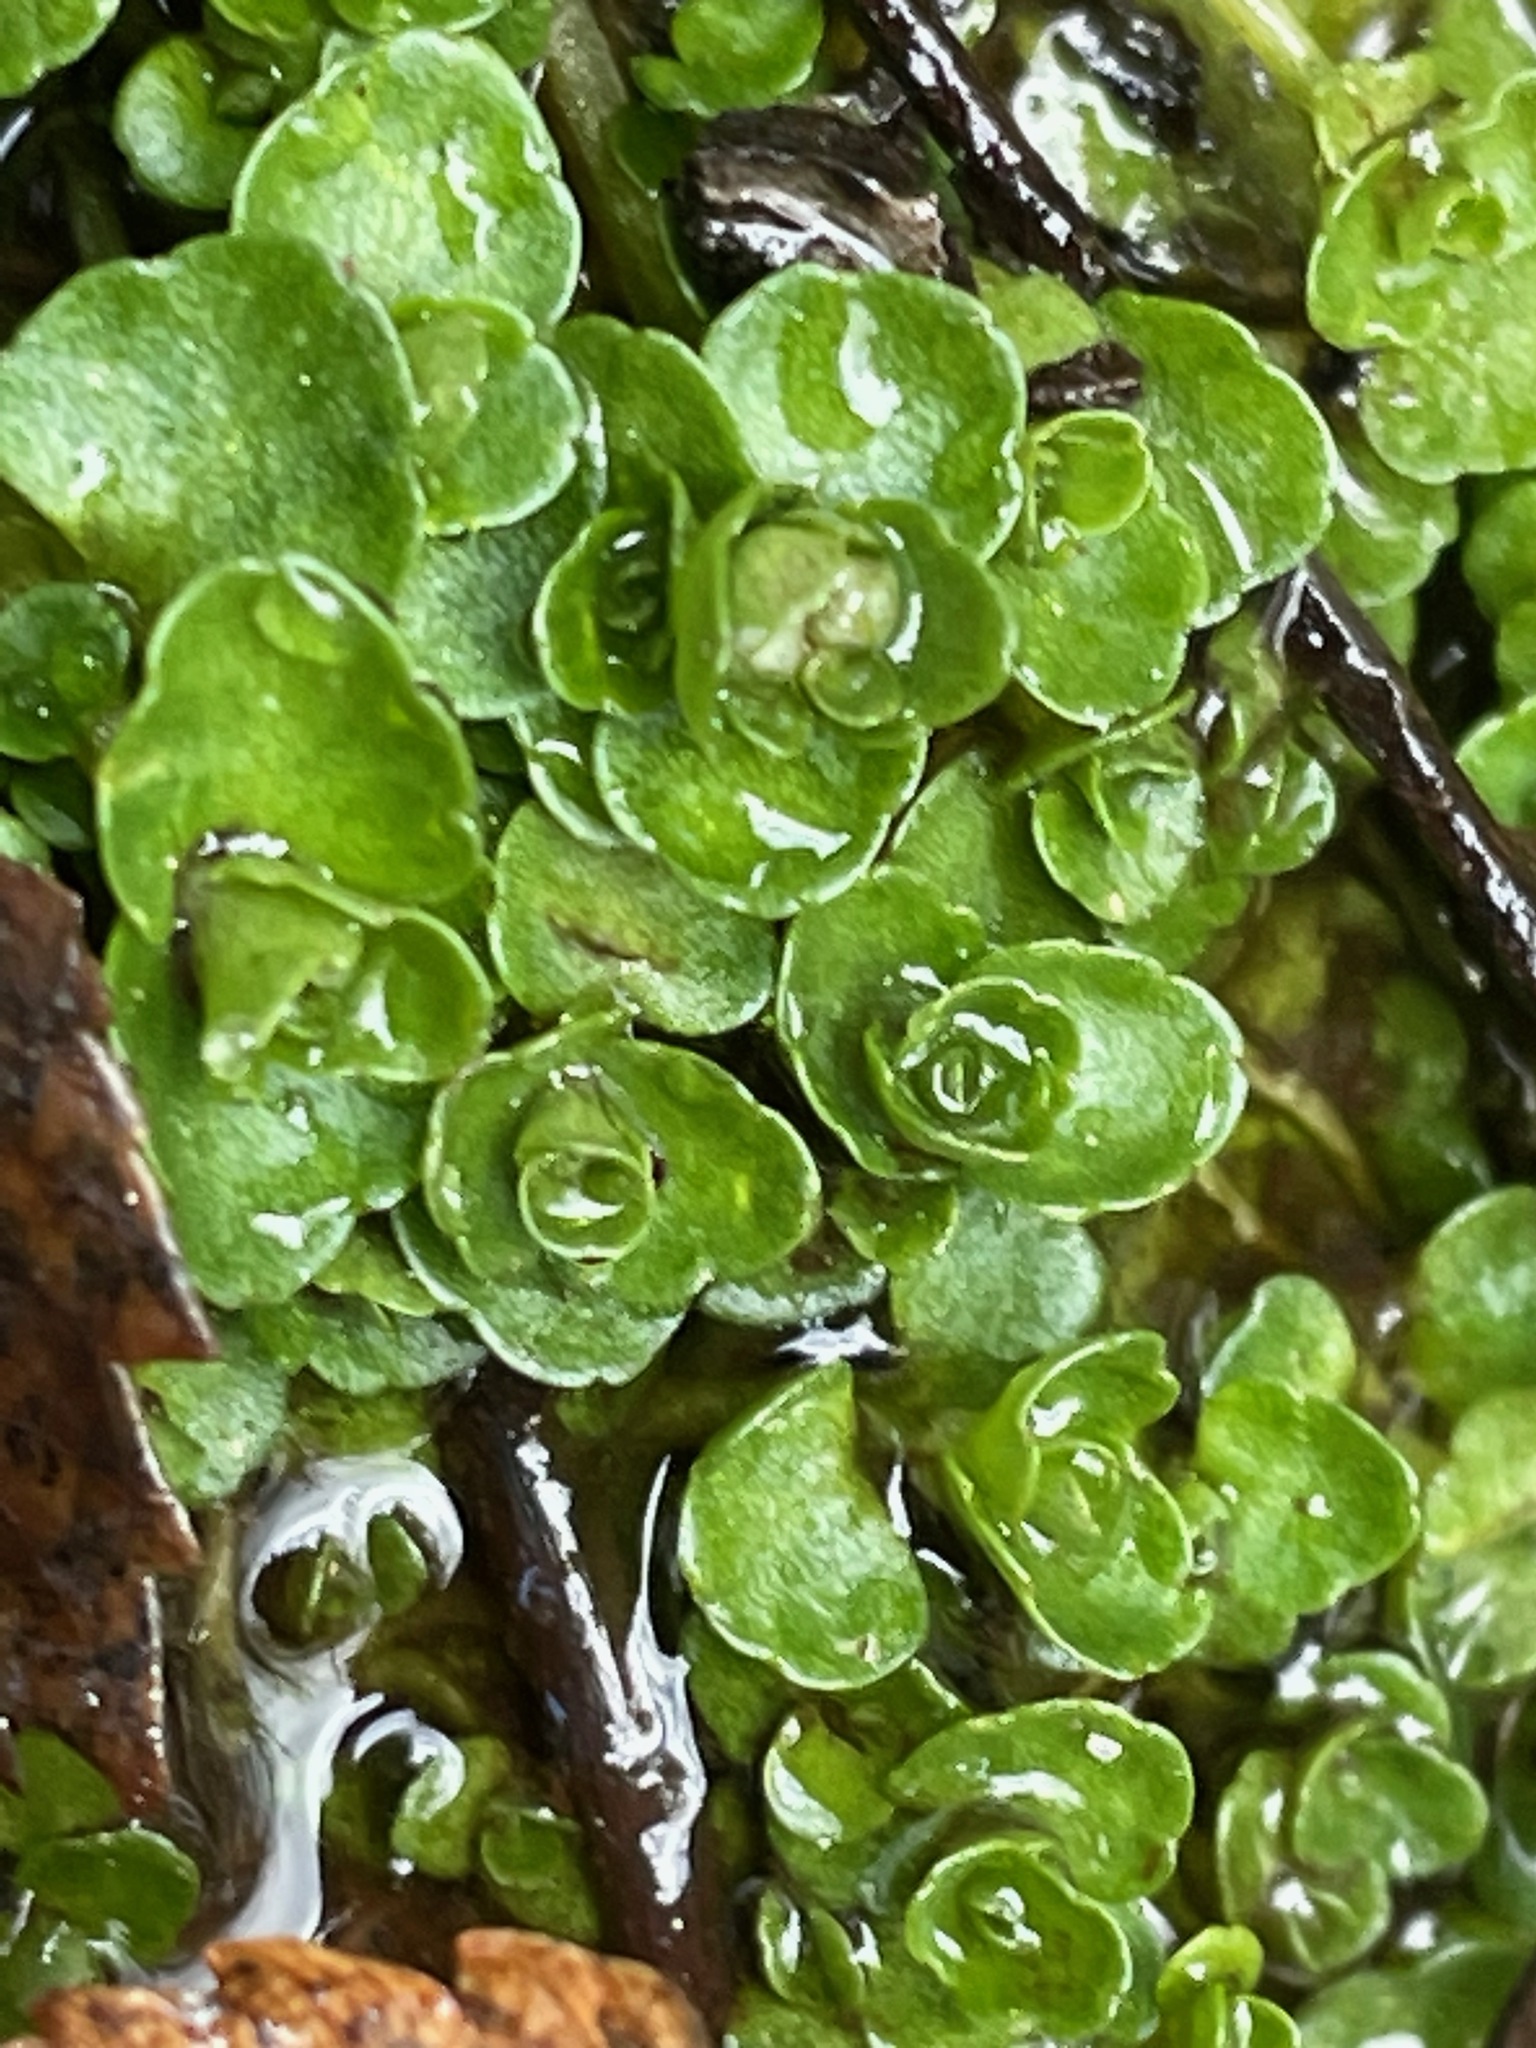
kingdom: Plantae
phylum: Tracheophyta
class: Magnoliopsida
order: Saxifragales
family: Saxifragaceae
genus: Chrysosplenium
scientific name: Chrysosplenium americanum
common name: American golden-saxifrage
